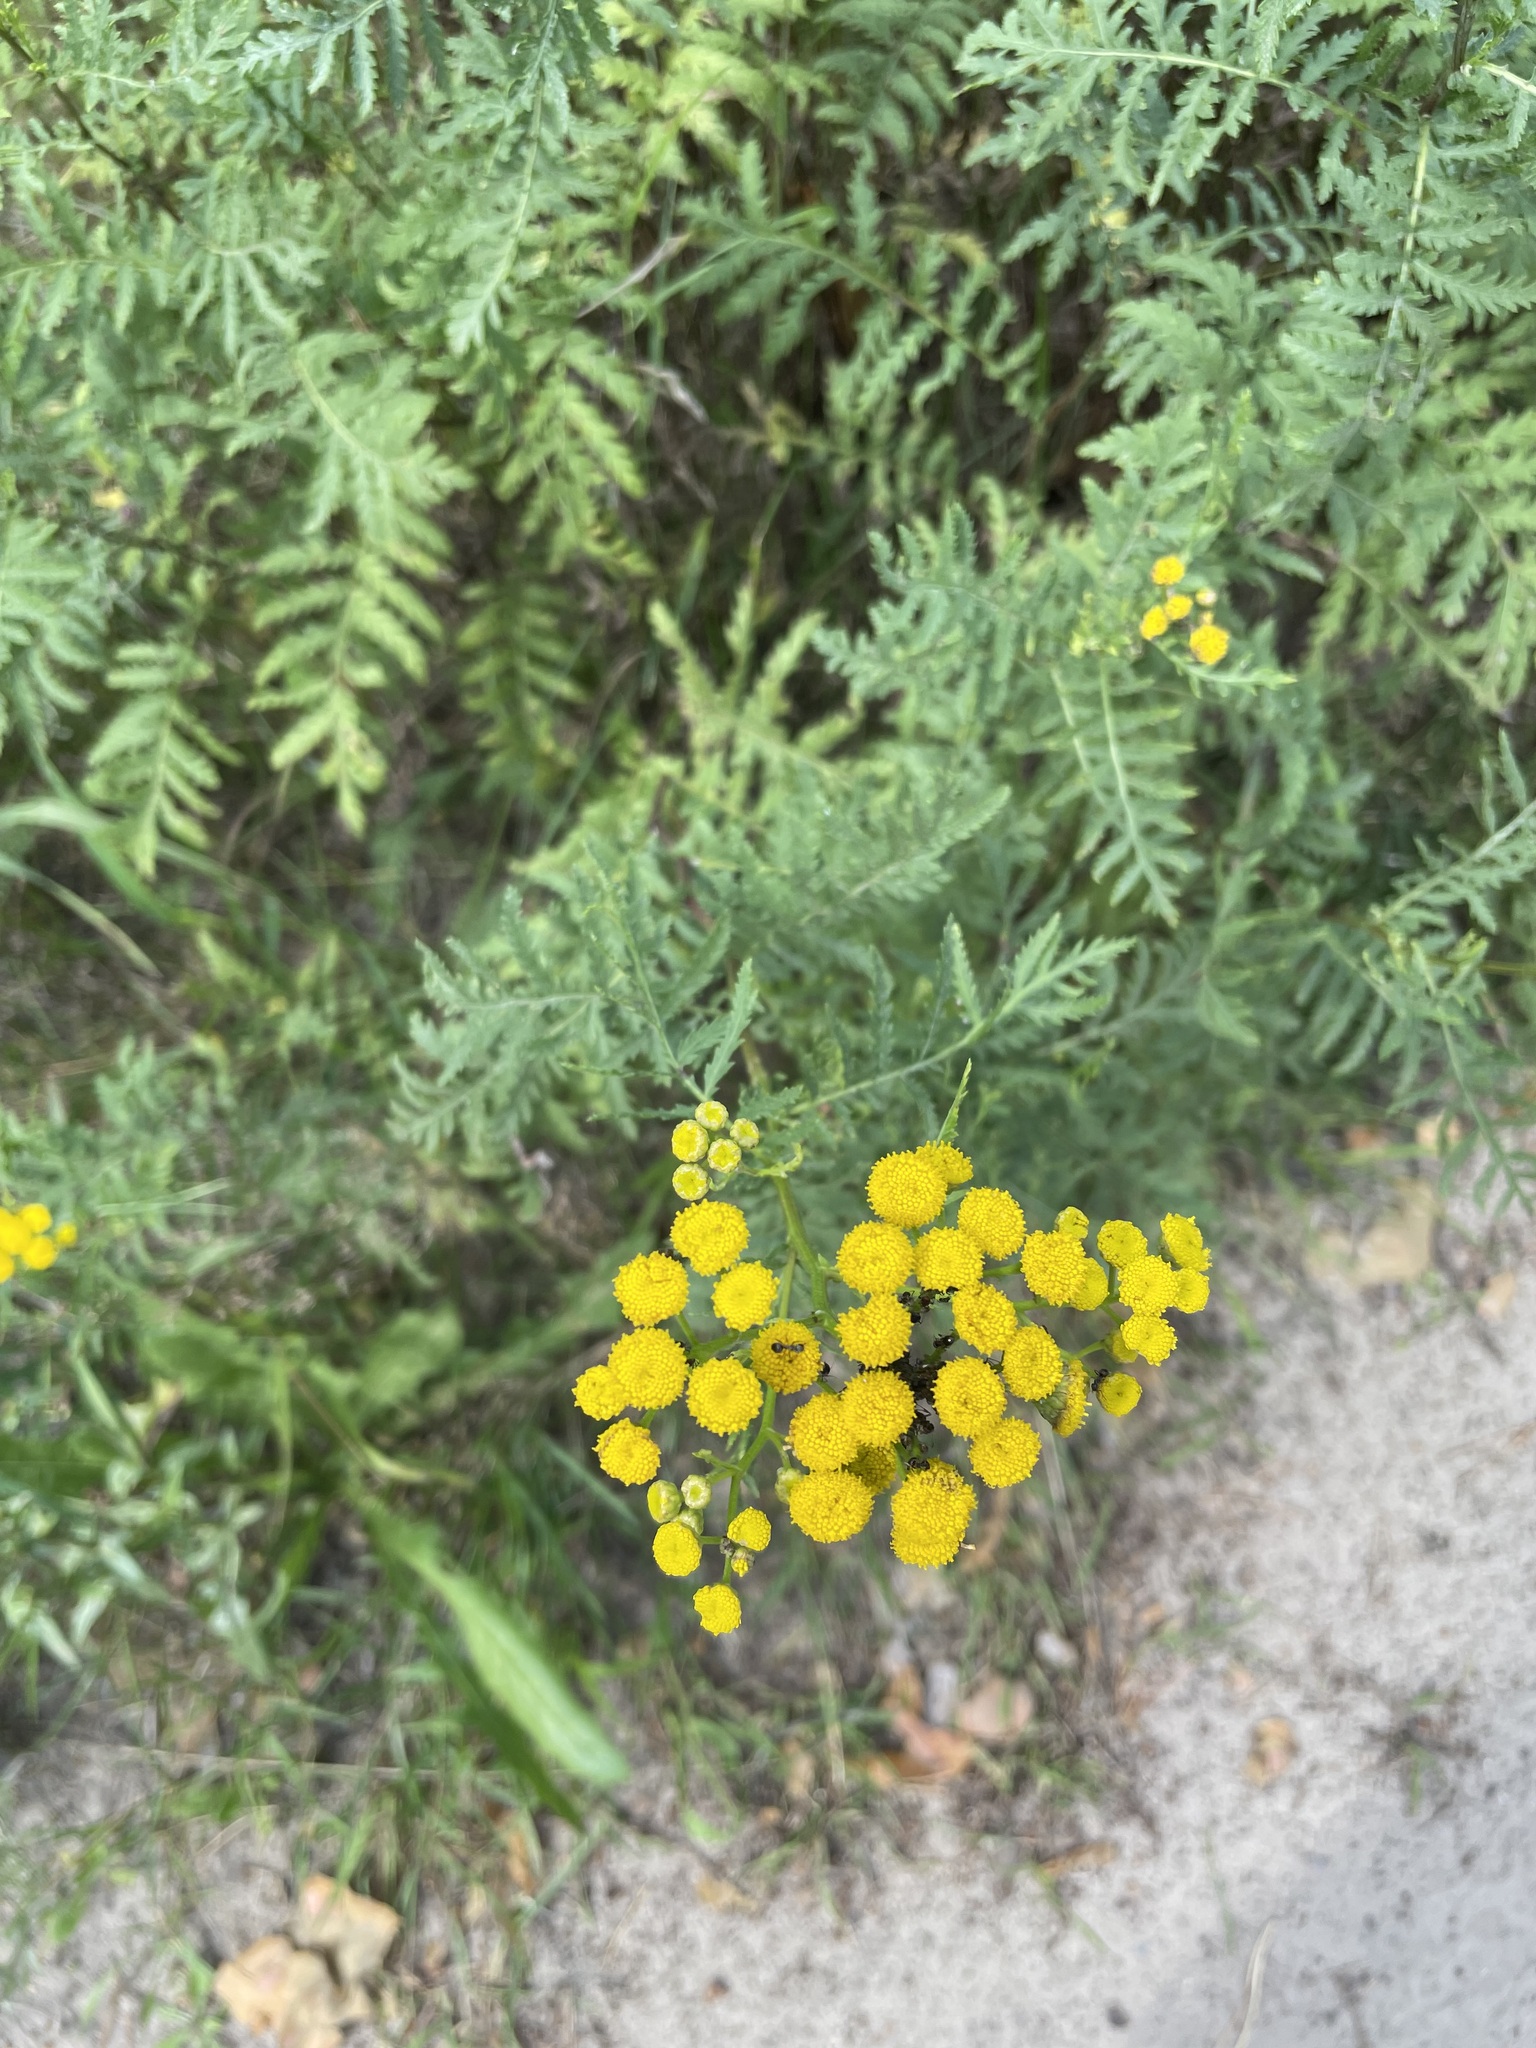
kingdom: Plantae
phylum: Tracheophyta
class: Magnoliopsida
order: Asterales
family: Asteraceae
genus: Tanacetum
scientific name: Tanacetum vulgare
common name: Common tansy
